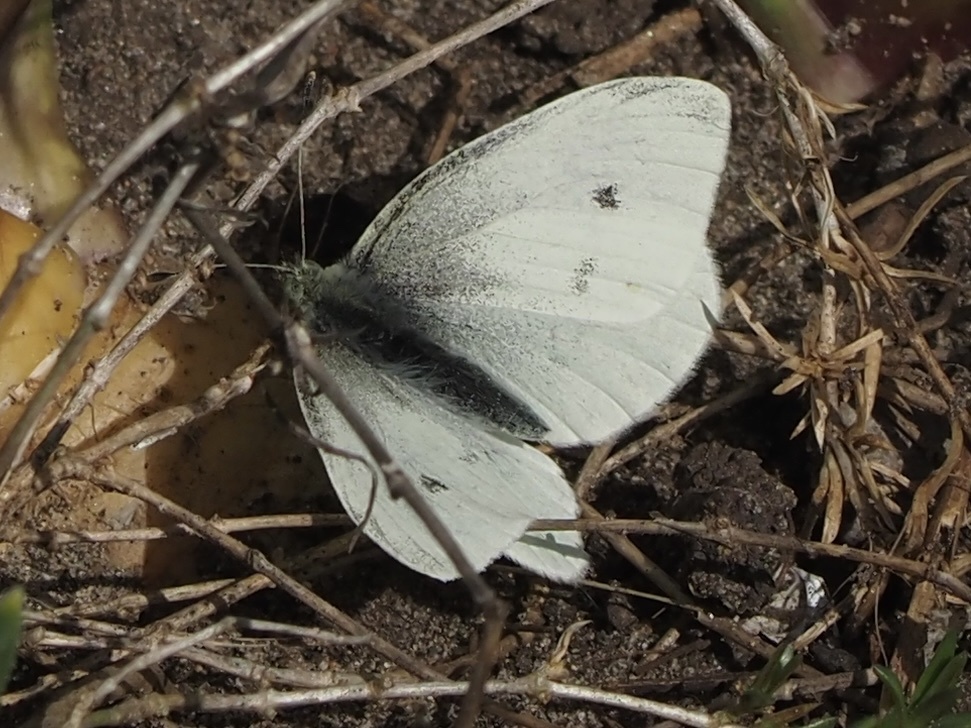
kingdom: Animalia
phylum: Arthropoda
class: Insecta
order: Lepidoptera
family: Pieridae
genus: Pieris
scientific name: Pieris rapae
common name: Small white
